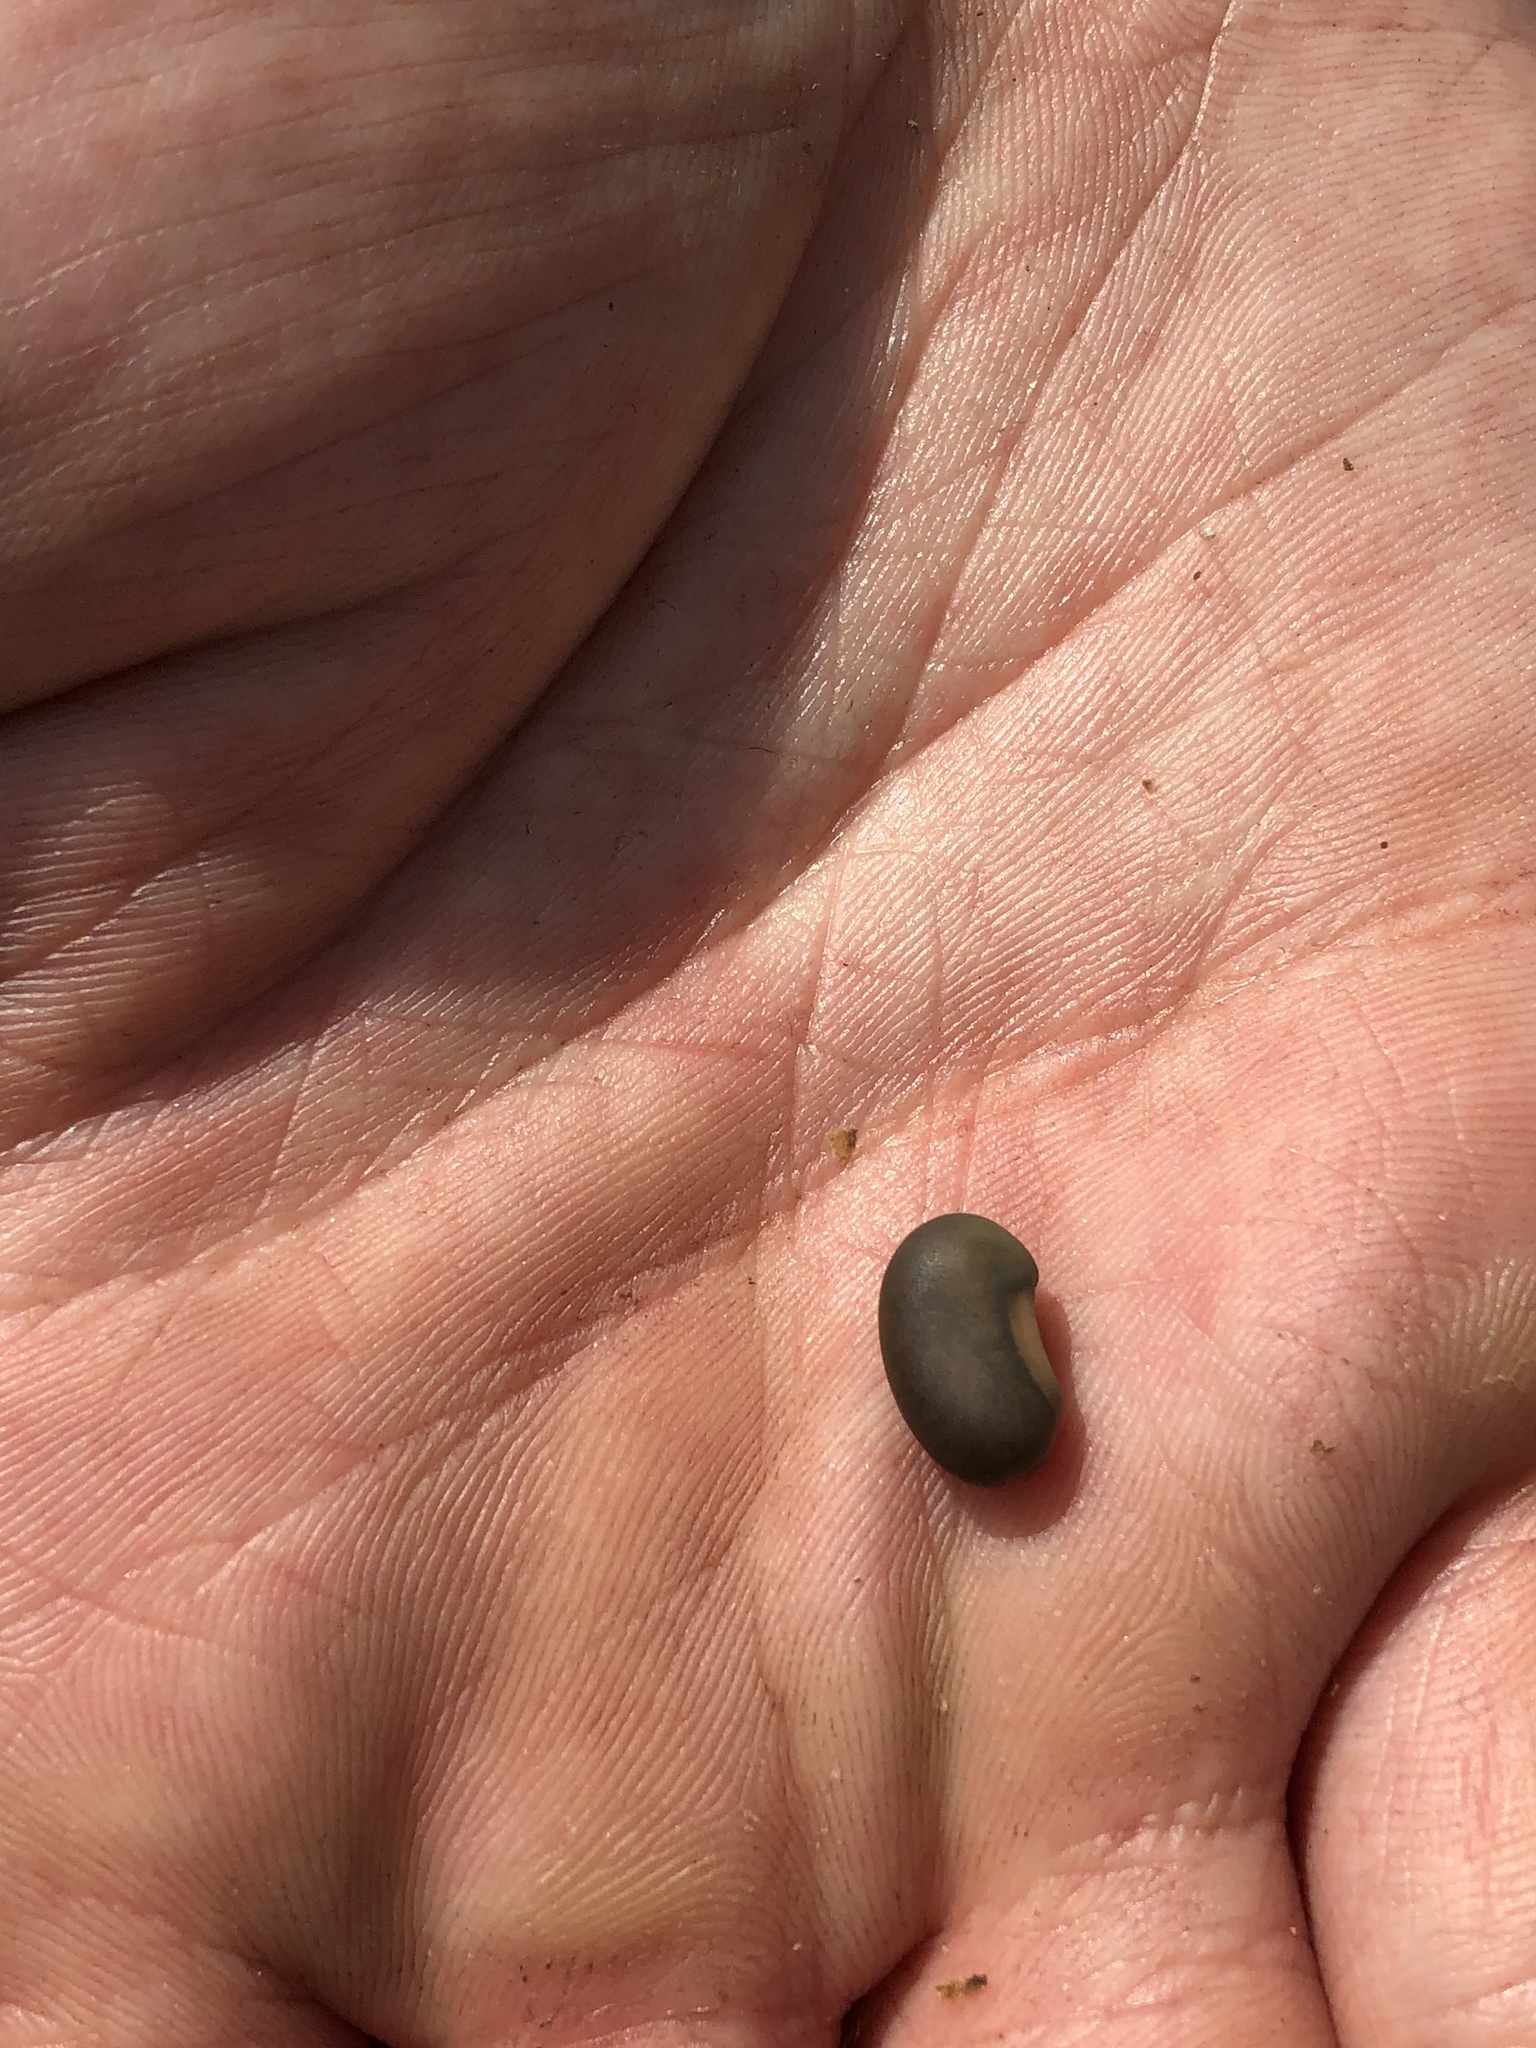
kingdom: Plantae
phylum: Tracheophyta
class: Magnoliopsida
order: Fabales
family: Fabaceae
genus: Sesbania
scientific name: Sesbania vesicaria
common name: Bagpod
